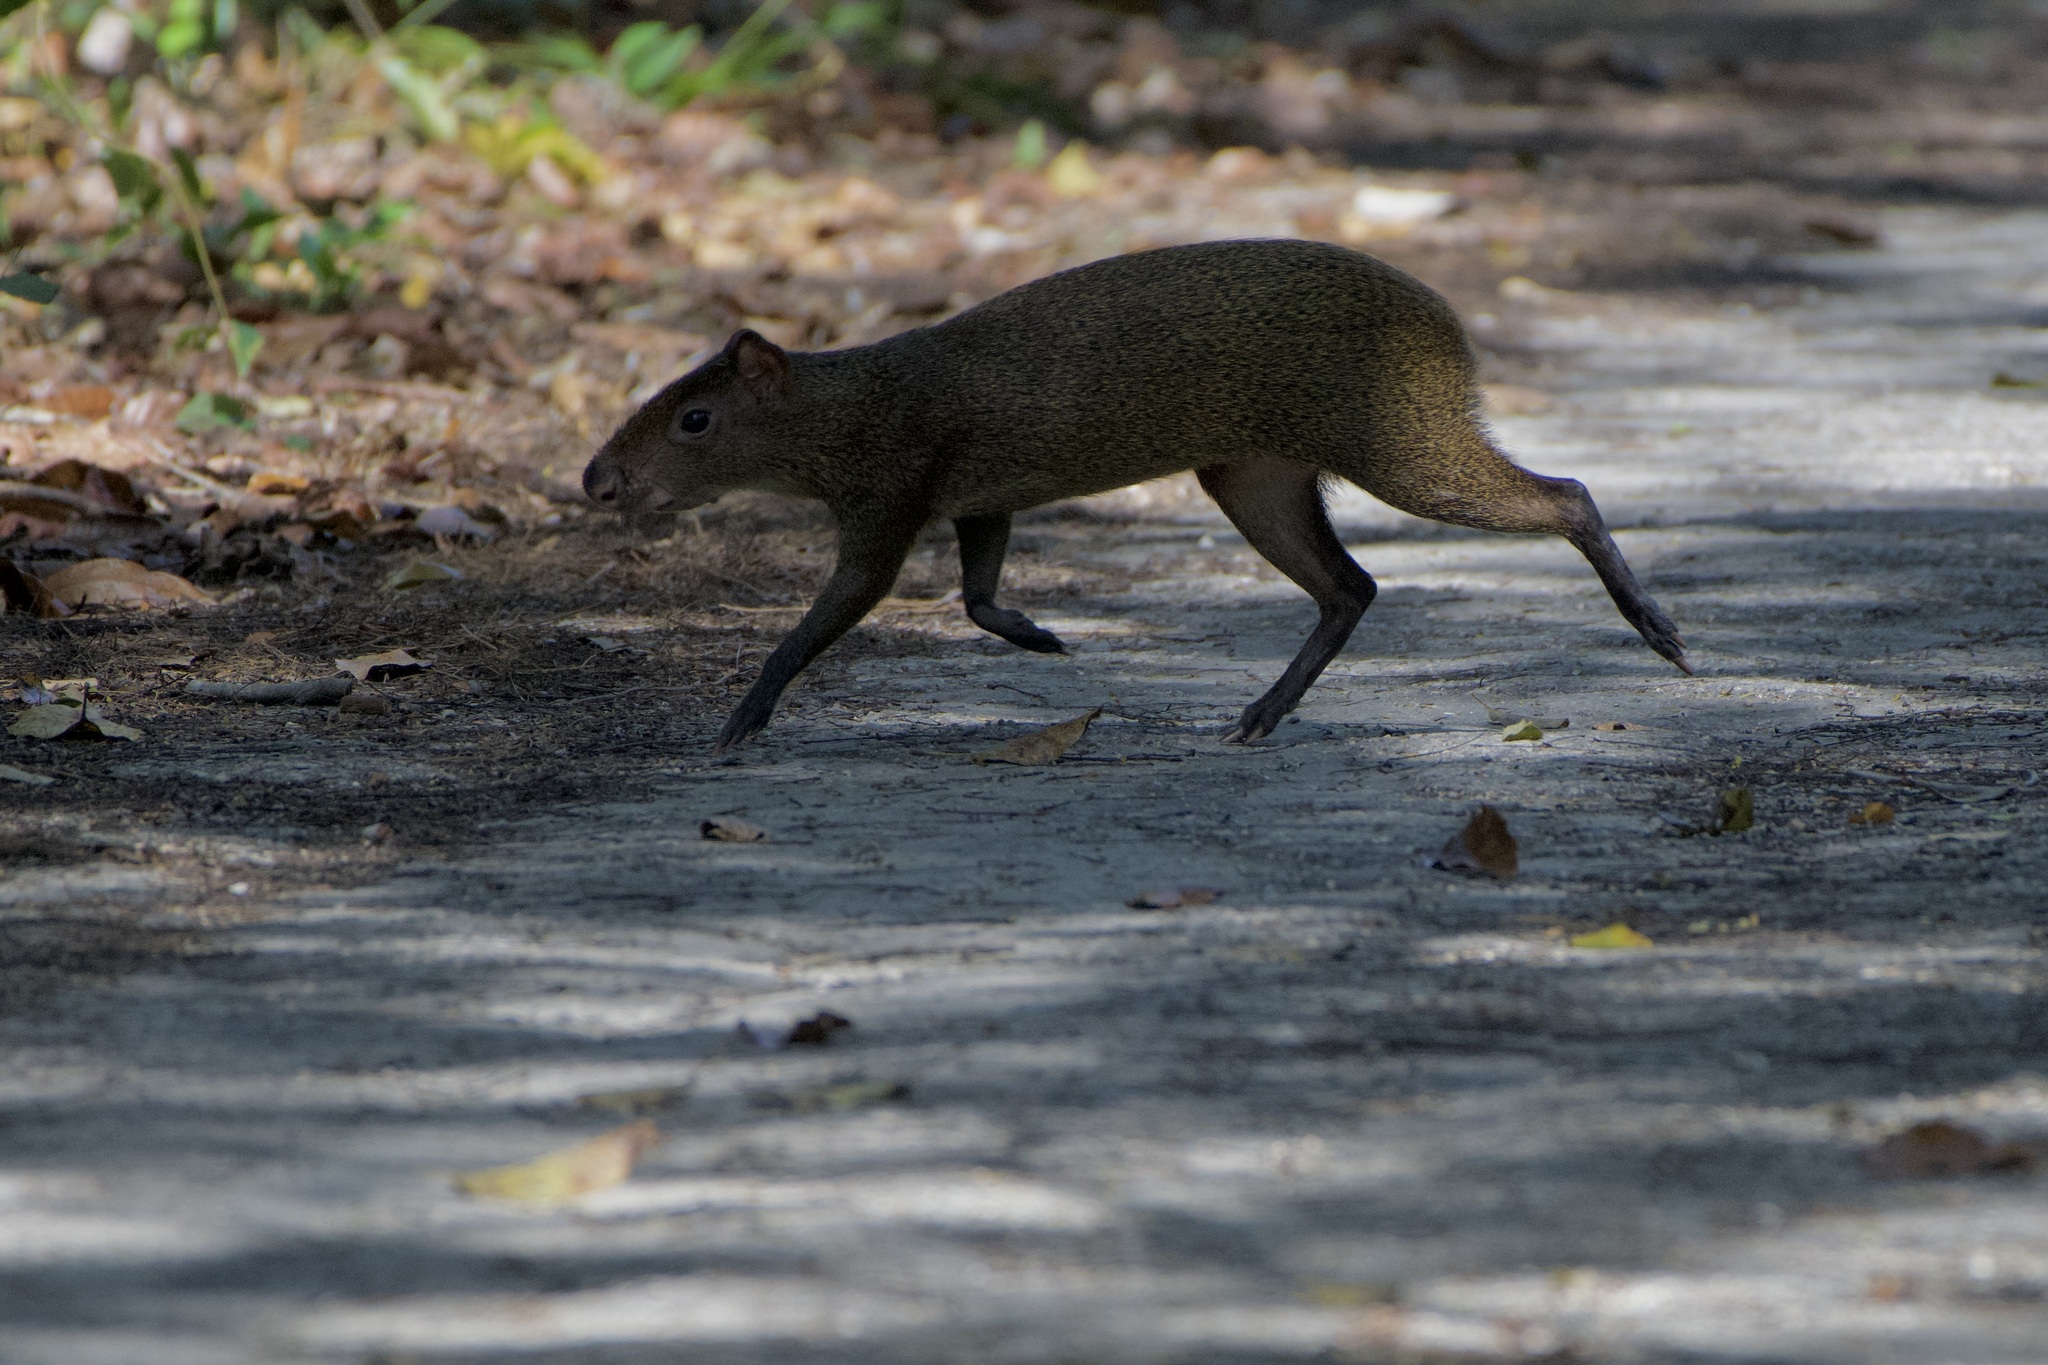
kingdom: Animalia
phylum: Chordata
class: Mammalia
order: Rodentia
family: Dasyproctidae
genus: Dasyprocta
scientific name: Dasyprocta punctata
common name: Central american agouti
